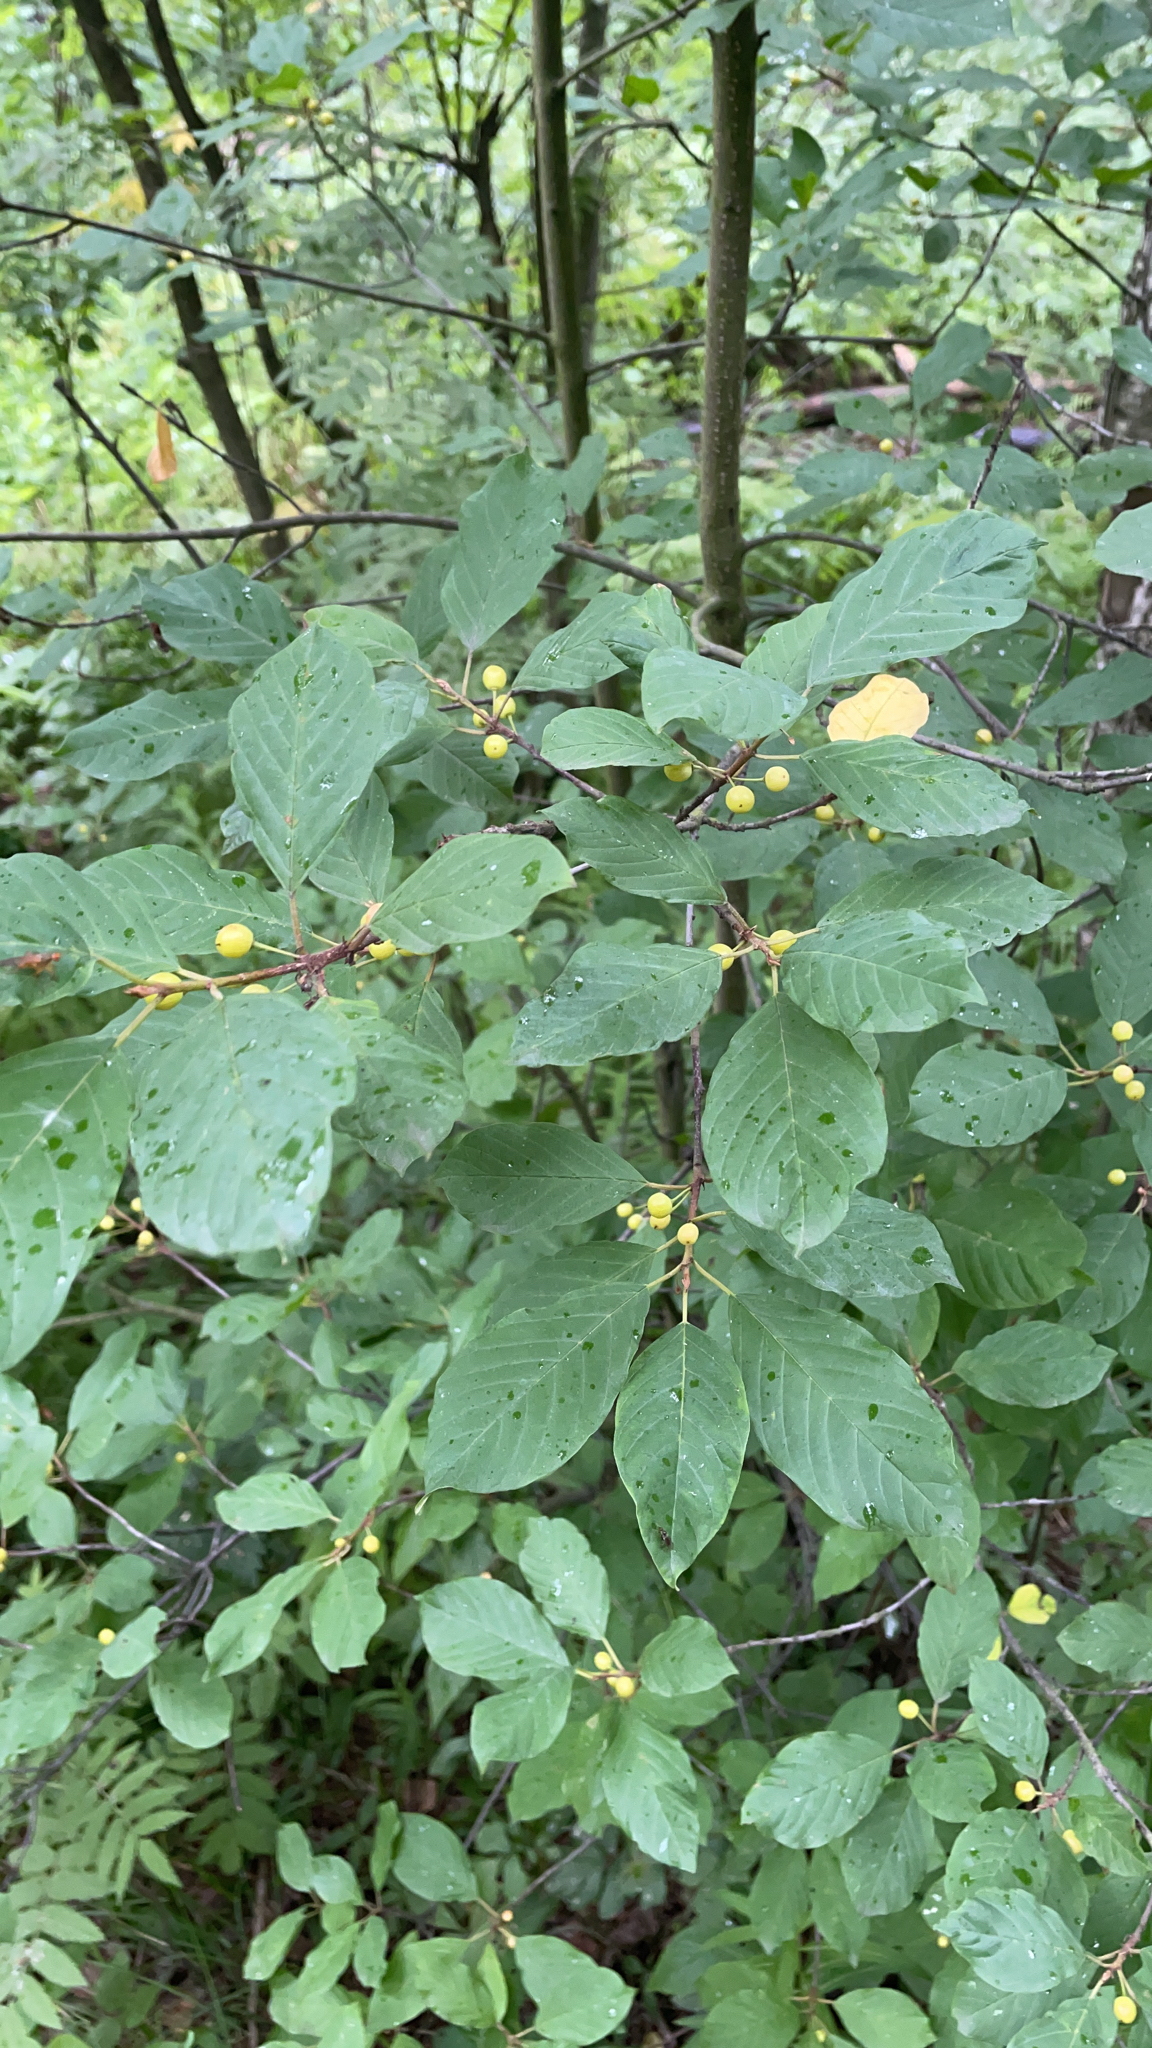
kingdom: Plantae
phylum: Tracheophyta
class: Magnoliopsida
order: Rosales
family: Rhamnaceae
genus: Frangula
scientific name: Frangula alnus
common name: Alder buckthorn
